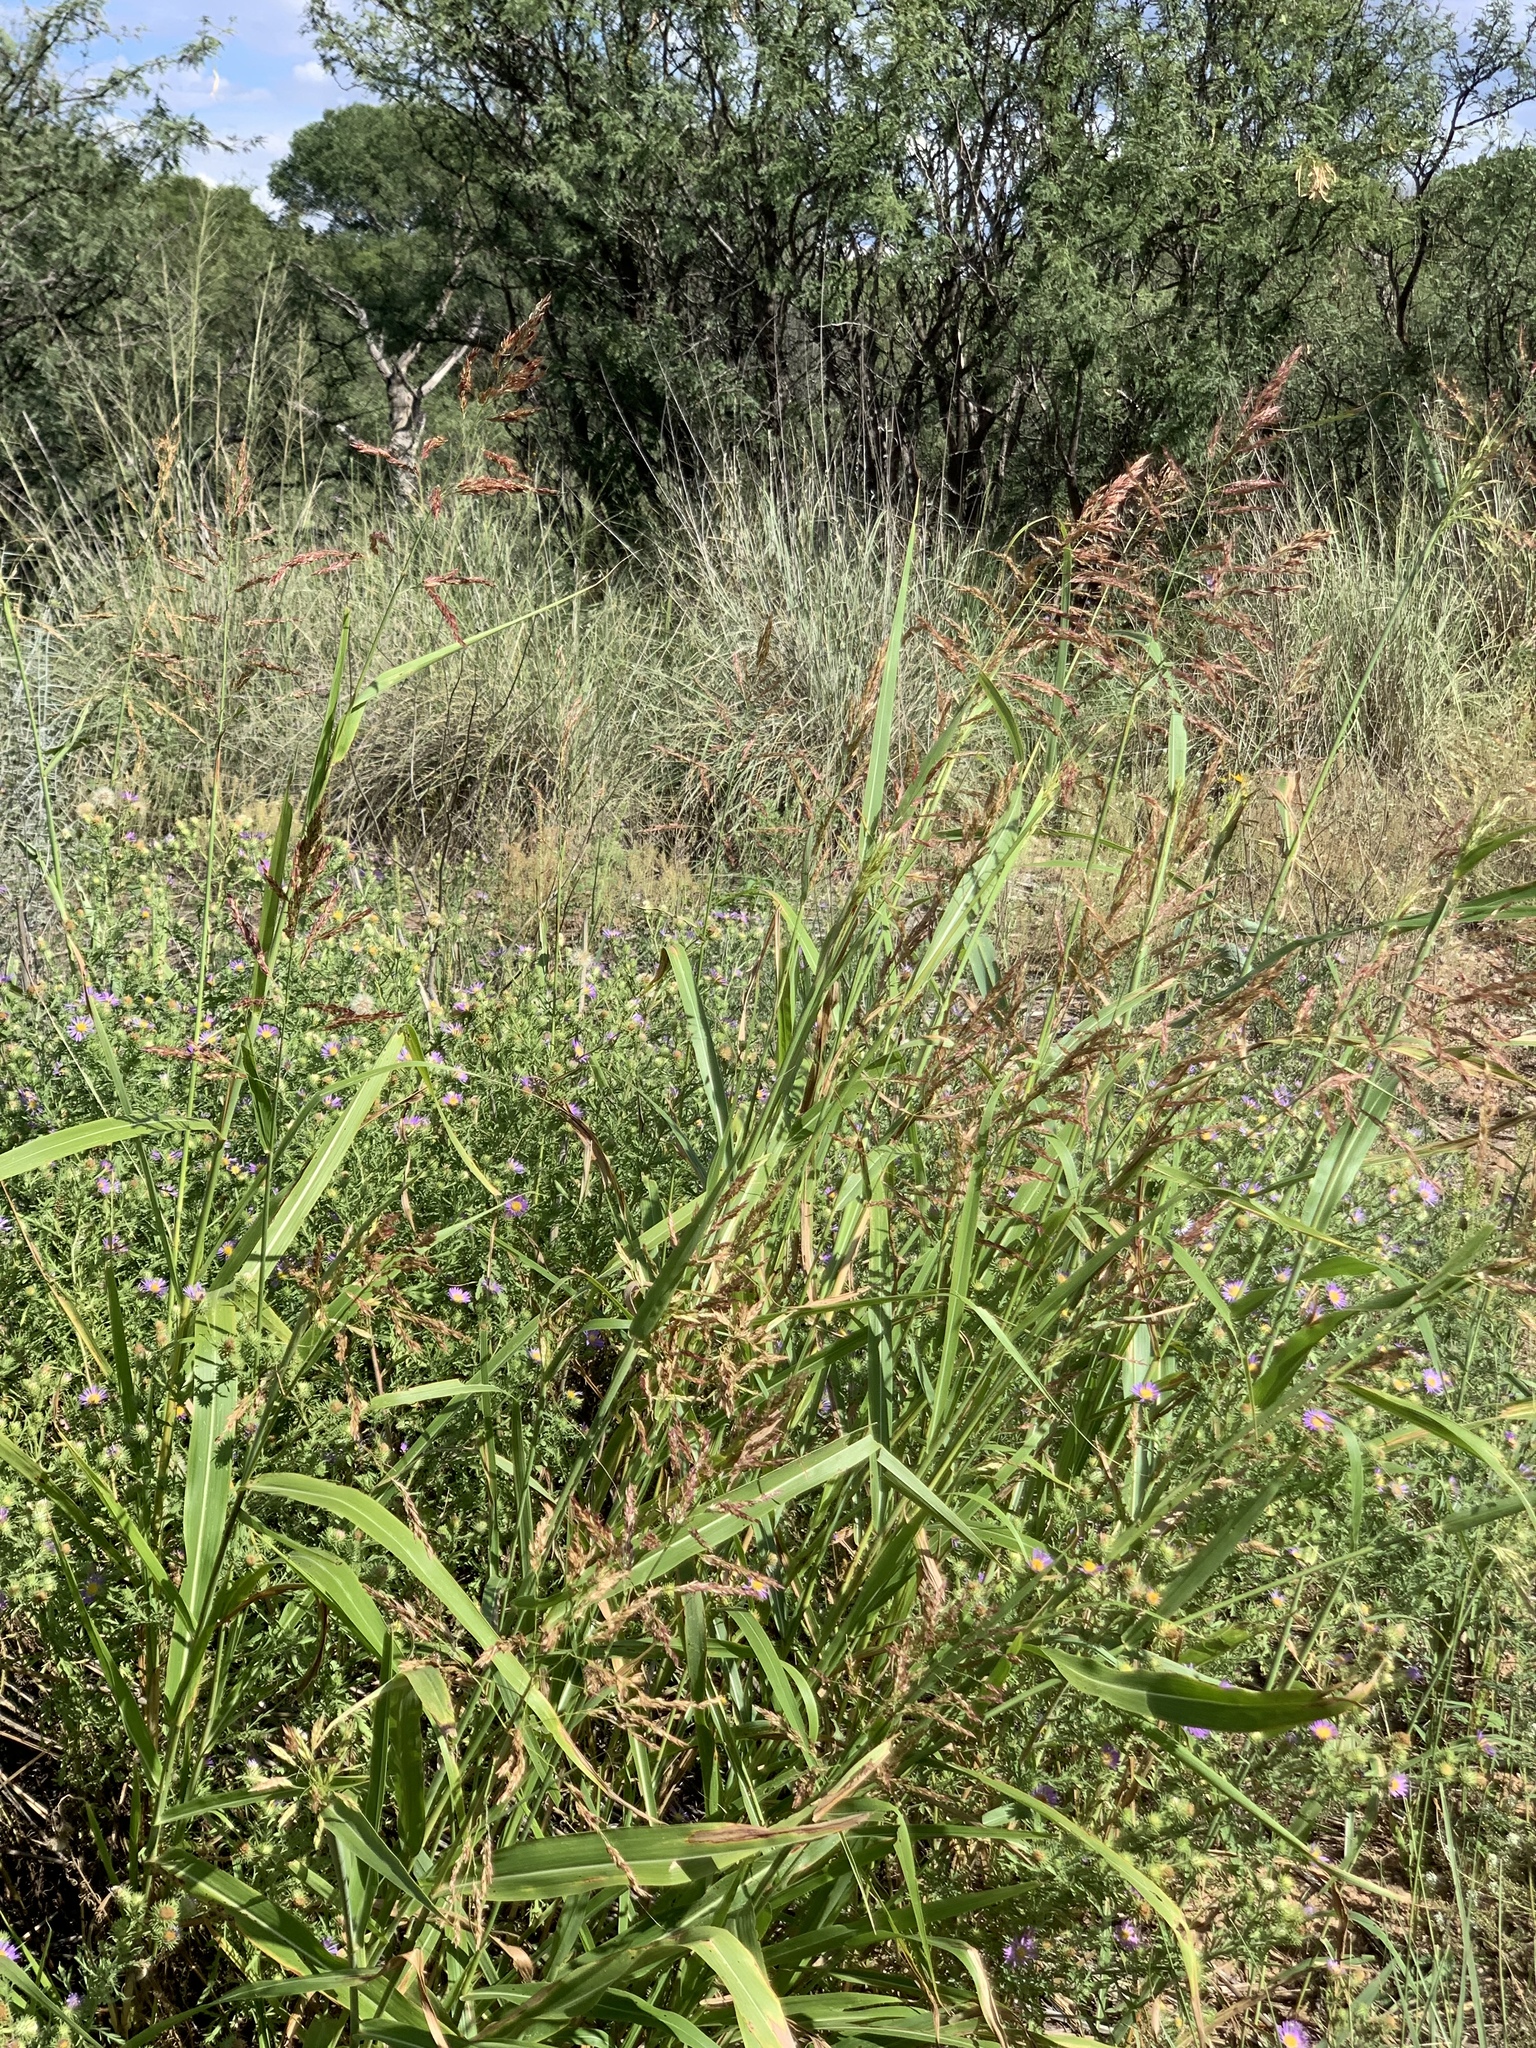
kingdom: Plantae
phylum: Tracheophyta
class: Liliopsida
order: Poales
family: Poaceae
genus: Sorghum
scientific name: Sorghum halepense
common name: Johnson-grass
